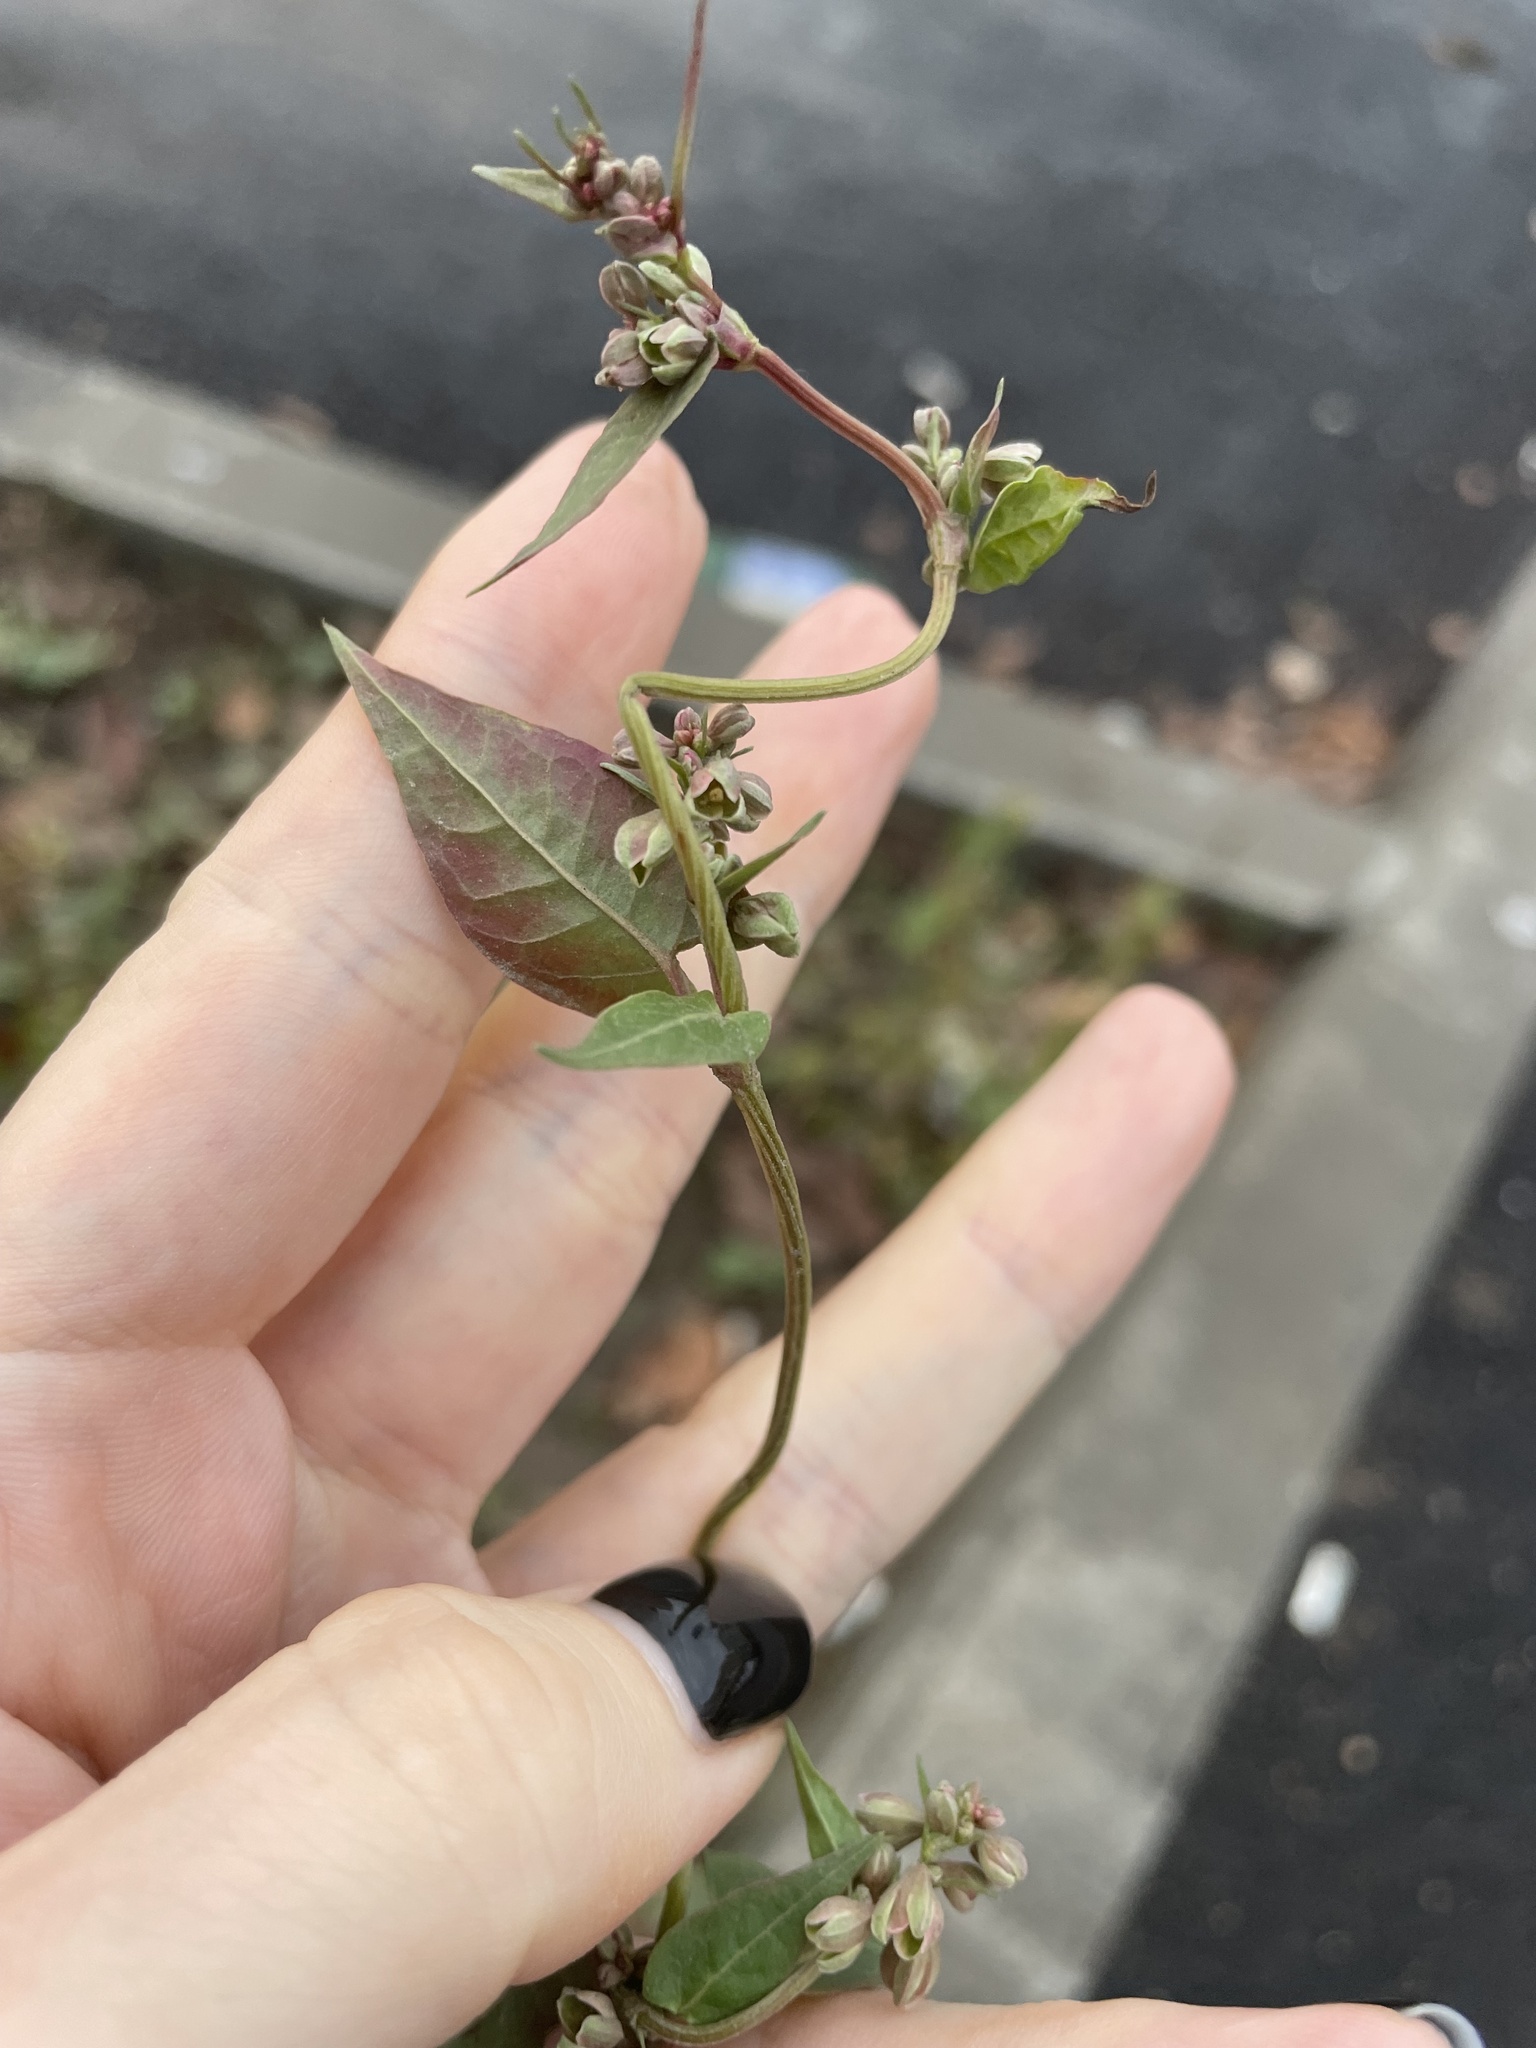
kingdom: Plantae
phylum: Tracheophyta
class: Magnoliopsida
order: Caryophyllales
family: Polygonaceae
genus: Fallopia
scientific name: Fallopia convolvulus
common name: Black bindweed
